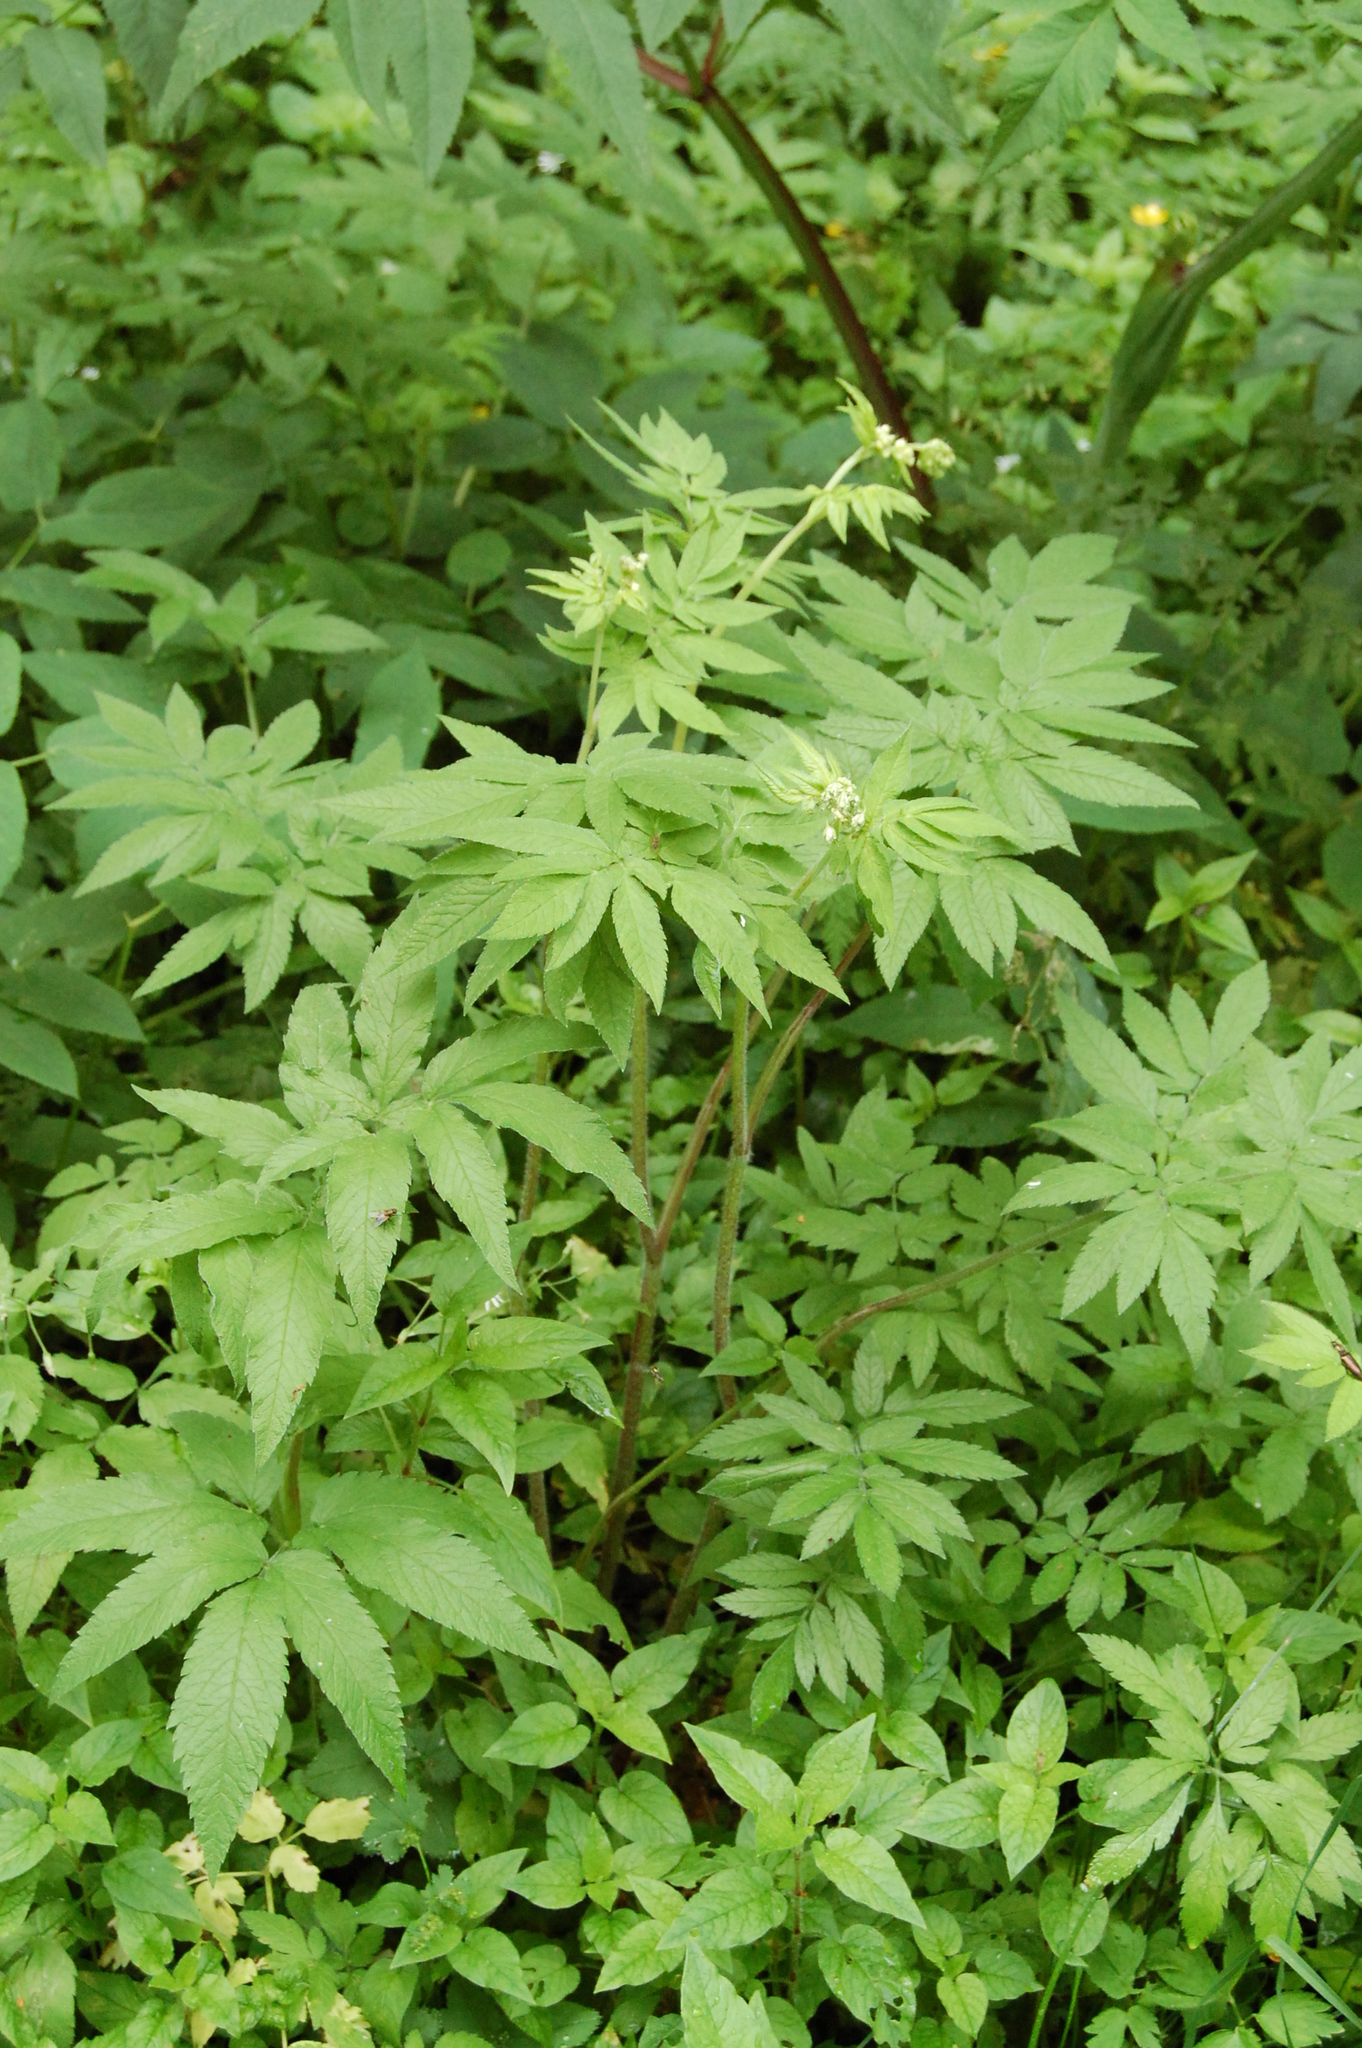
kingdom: Plantae
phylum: Tracheophyta
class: Magnoliopsida
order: Apiales
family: Apiaceae
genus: Chaerophyllum
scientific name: Chaerophyllum aromaticum
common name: Broadleaf chervil
